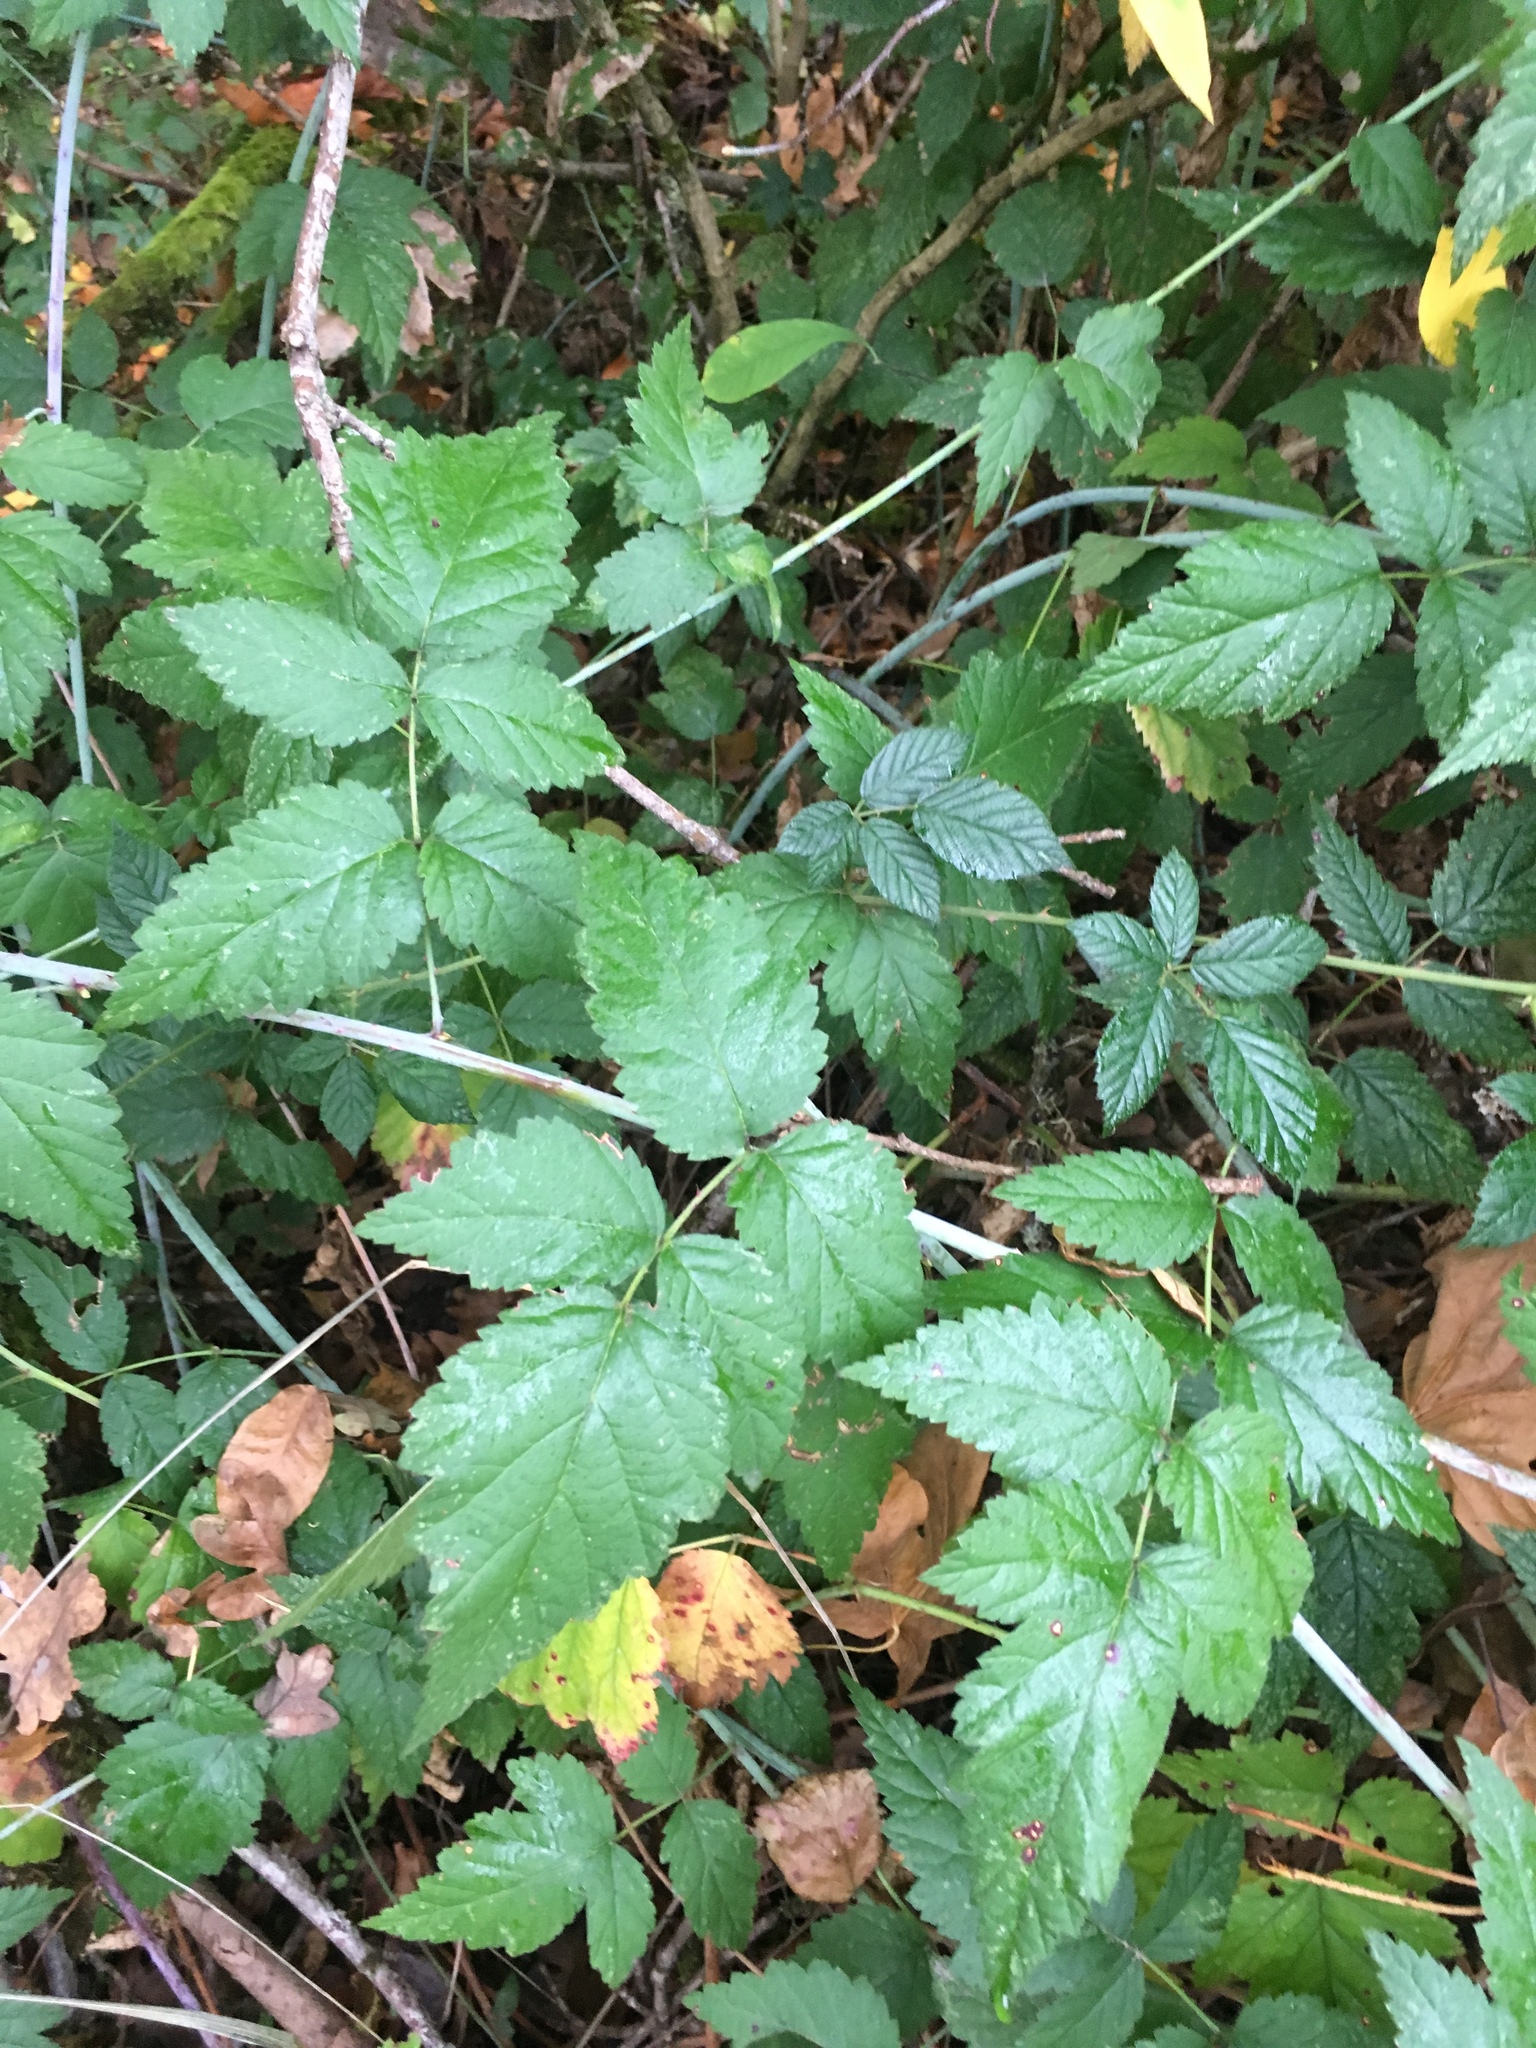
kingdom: Plantae
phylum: Tracheophyta
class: Magnoliopsida
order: Rosales
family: Rosaceae
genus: Rubus
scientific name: Rubus ursinus
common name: Pacific blackberry
